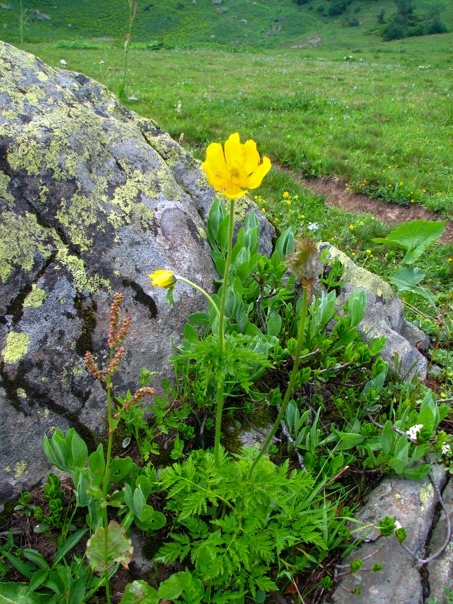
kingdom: Plantae
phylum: Tracheophyta
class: Magnoliopsida
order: Ranunculales
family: Ranunculaceae
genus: Pulsatilla
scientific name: Pulsatilla aurea
